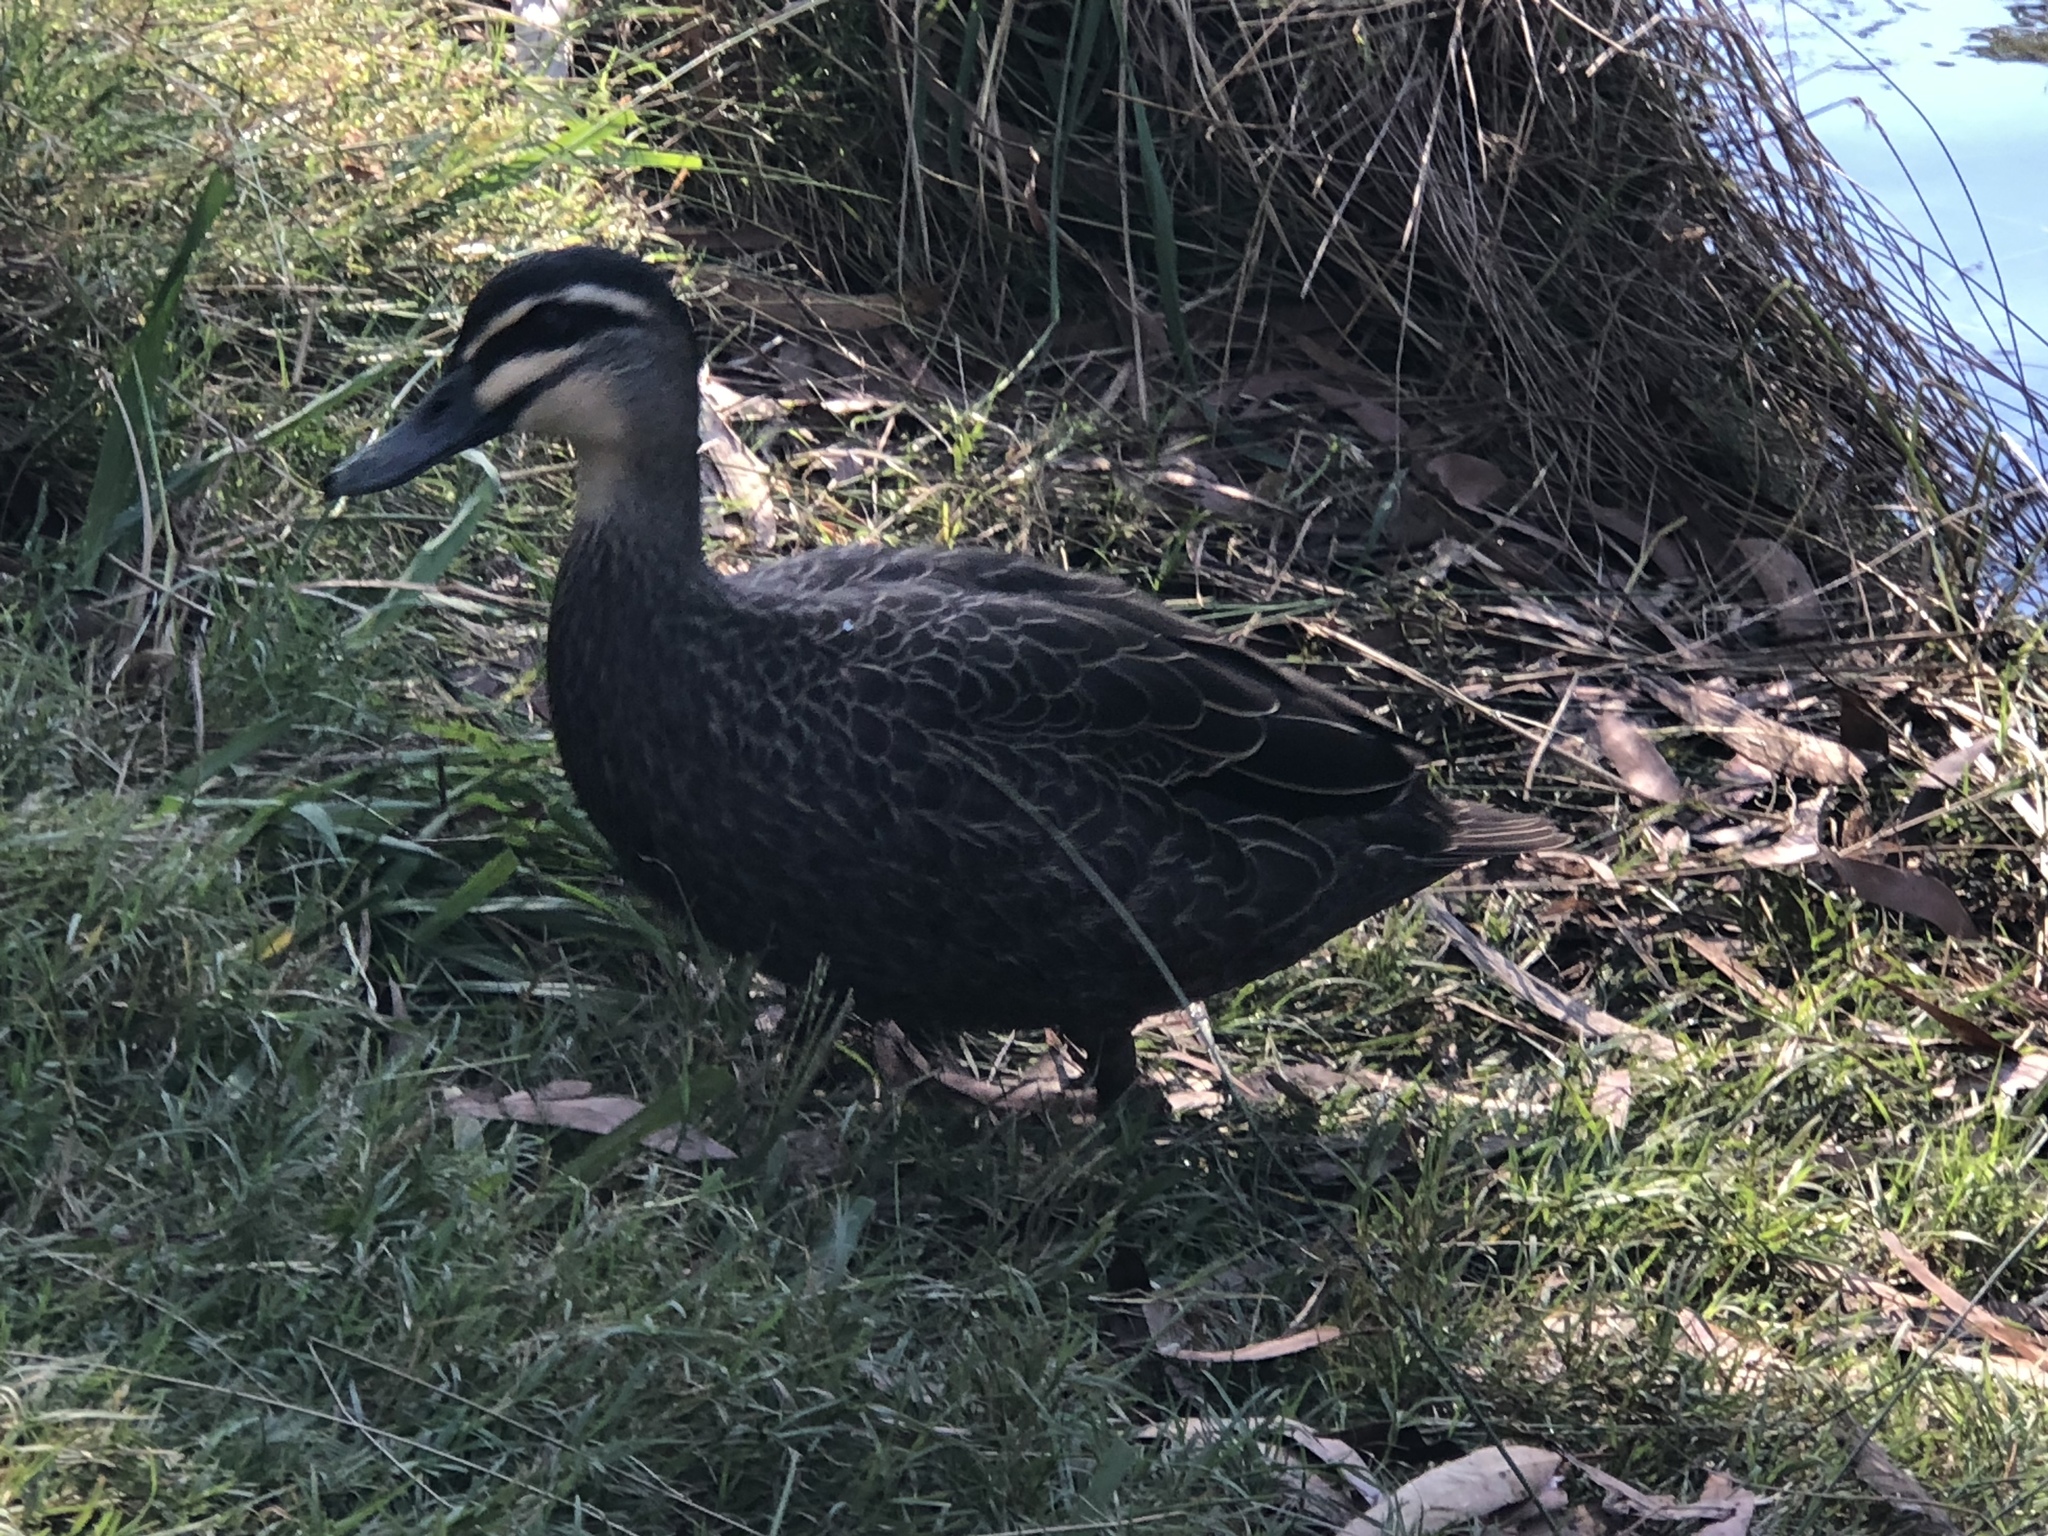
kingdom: Animalia
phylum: Chordata
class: Aves
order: Anseriformes
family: Anatidae
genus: Anas
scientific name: Anas superciliosa
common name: Pacific black duck
